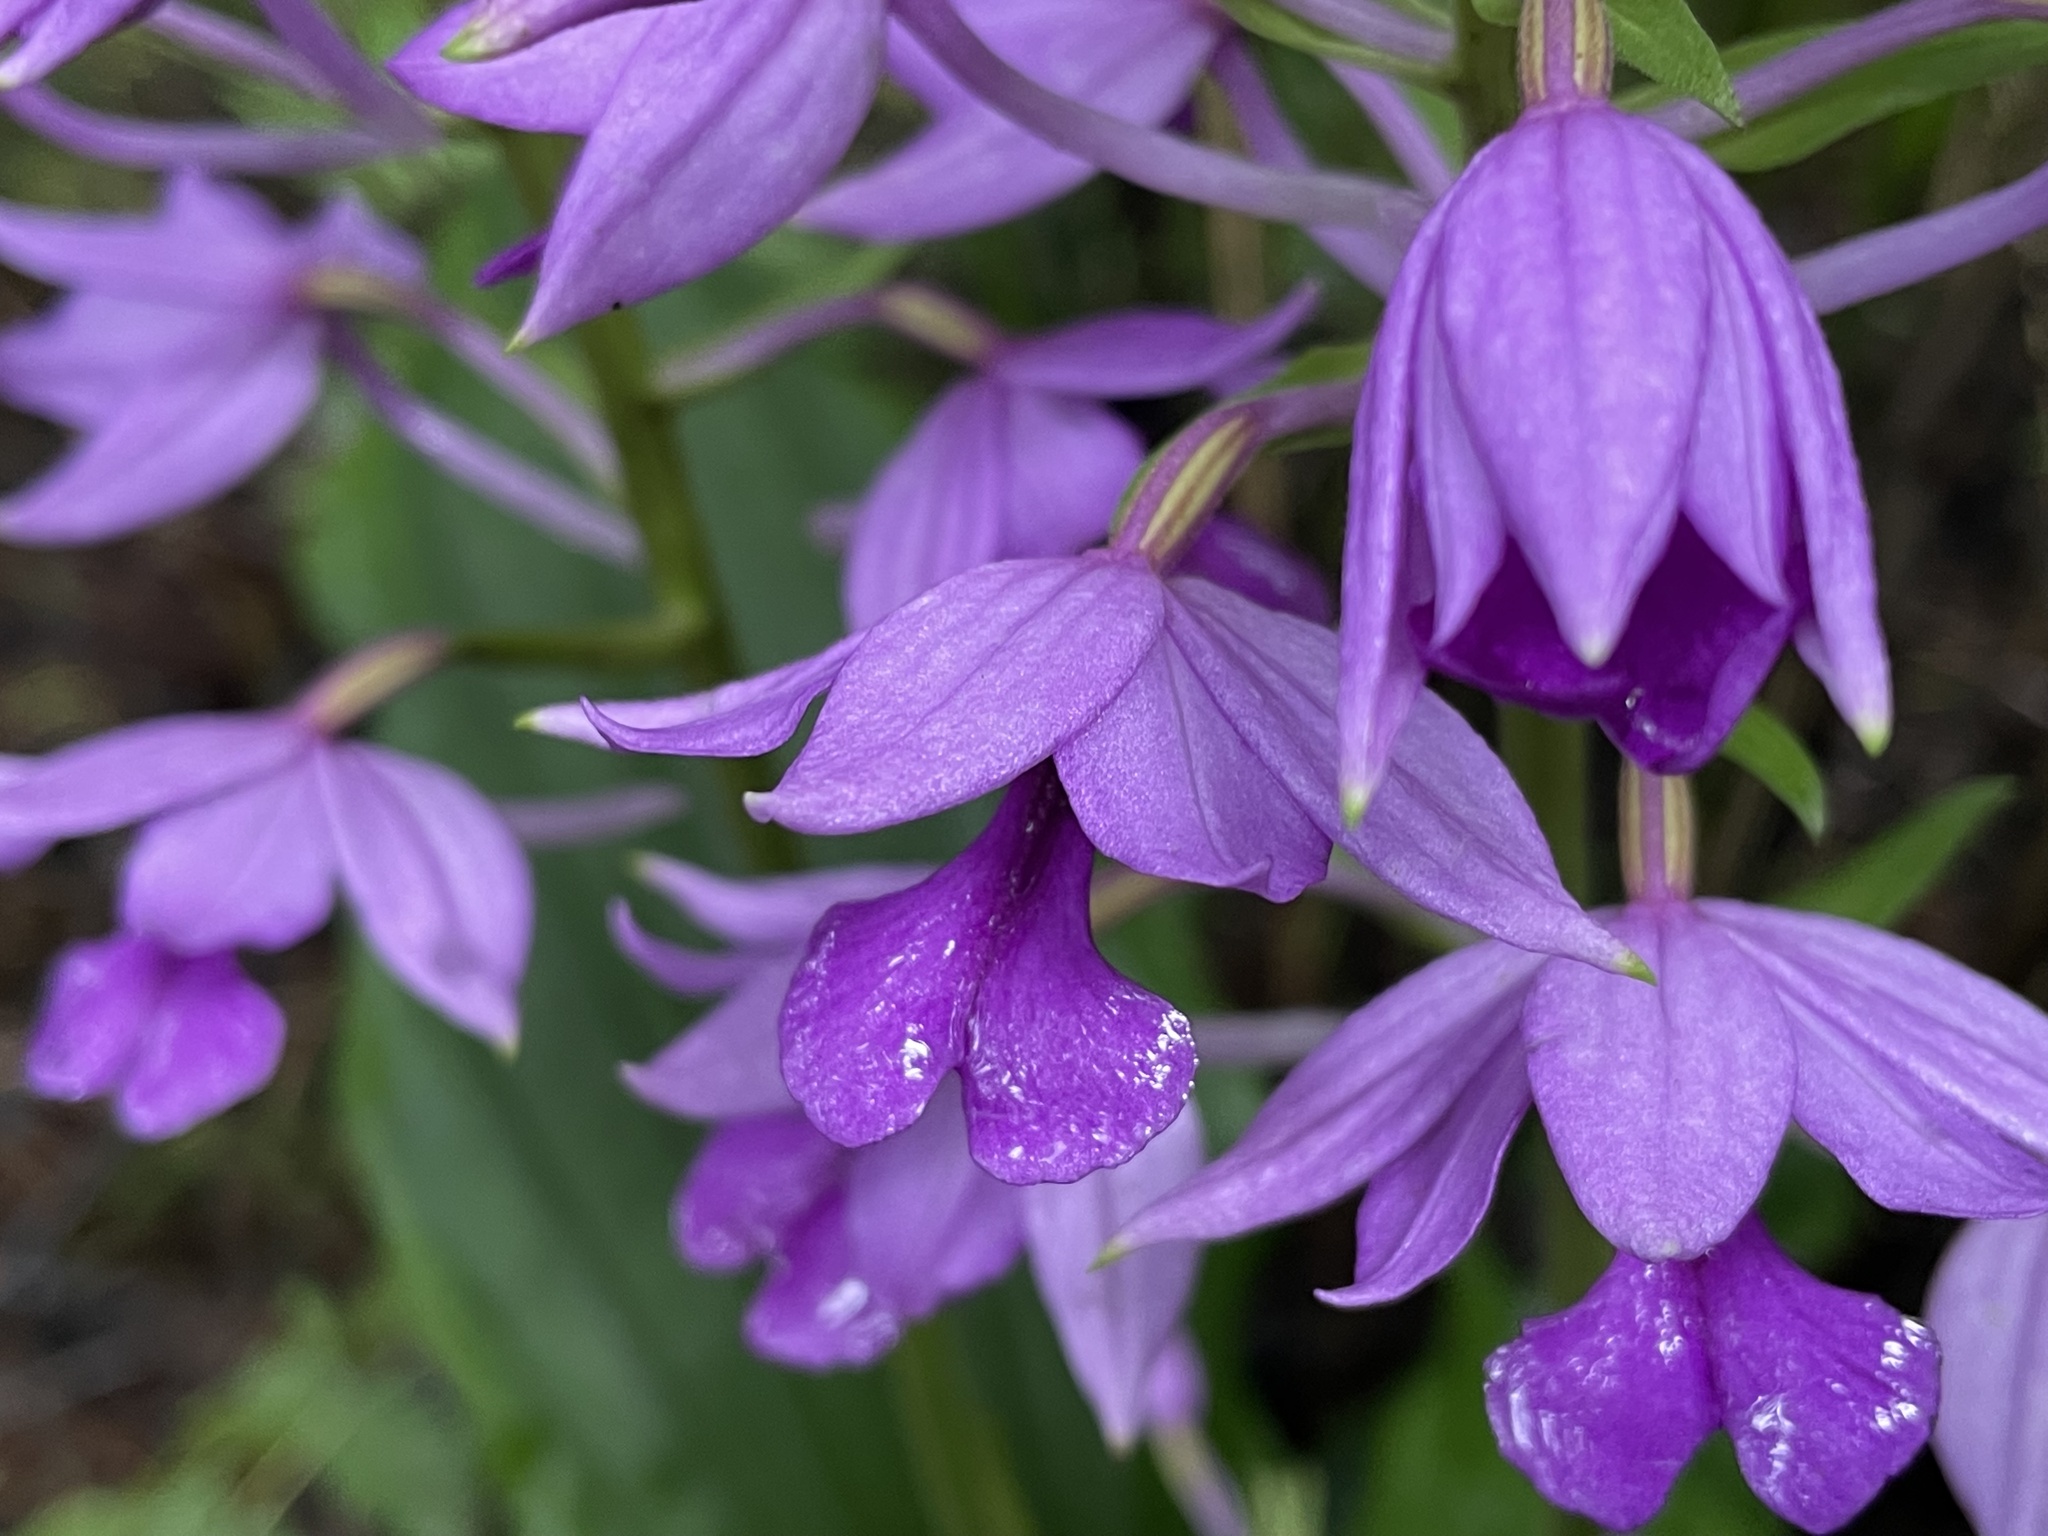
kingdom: Plantae
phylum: Tracheophyta
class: Liliopsida
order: Asparagales
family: Orchidaceae
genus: Calanthe
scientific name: Calanthe sylvatica
